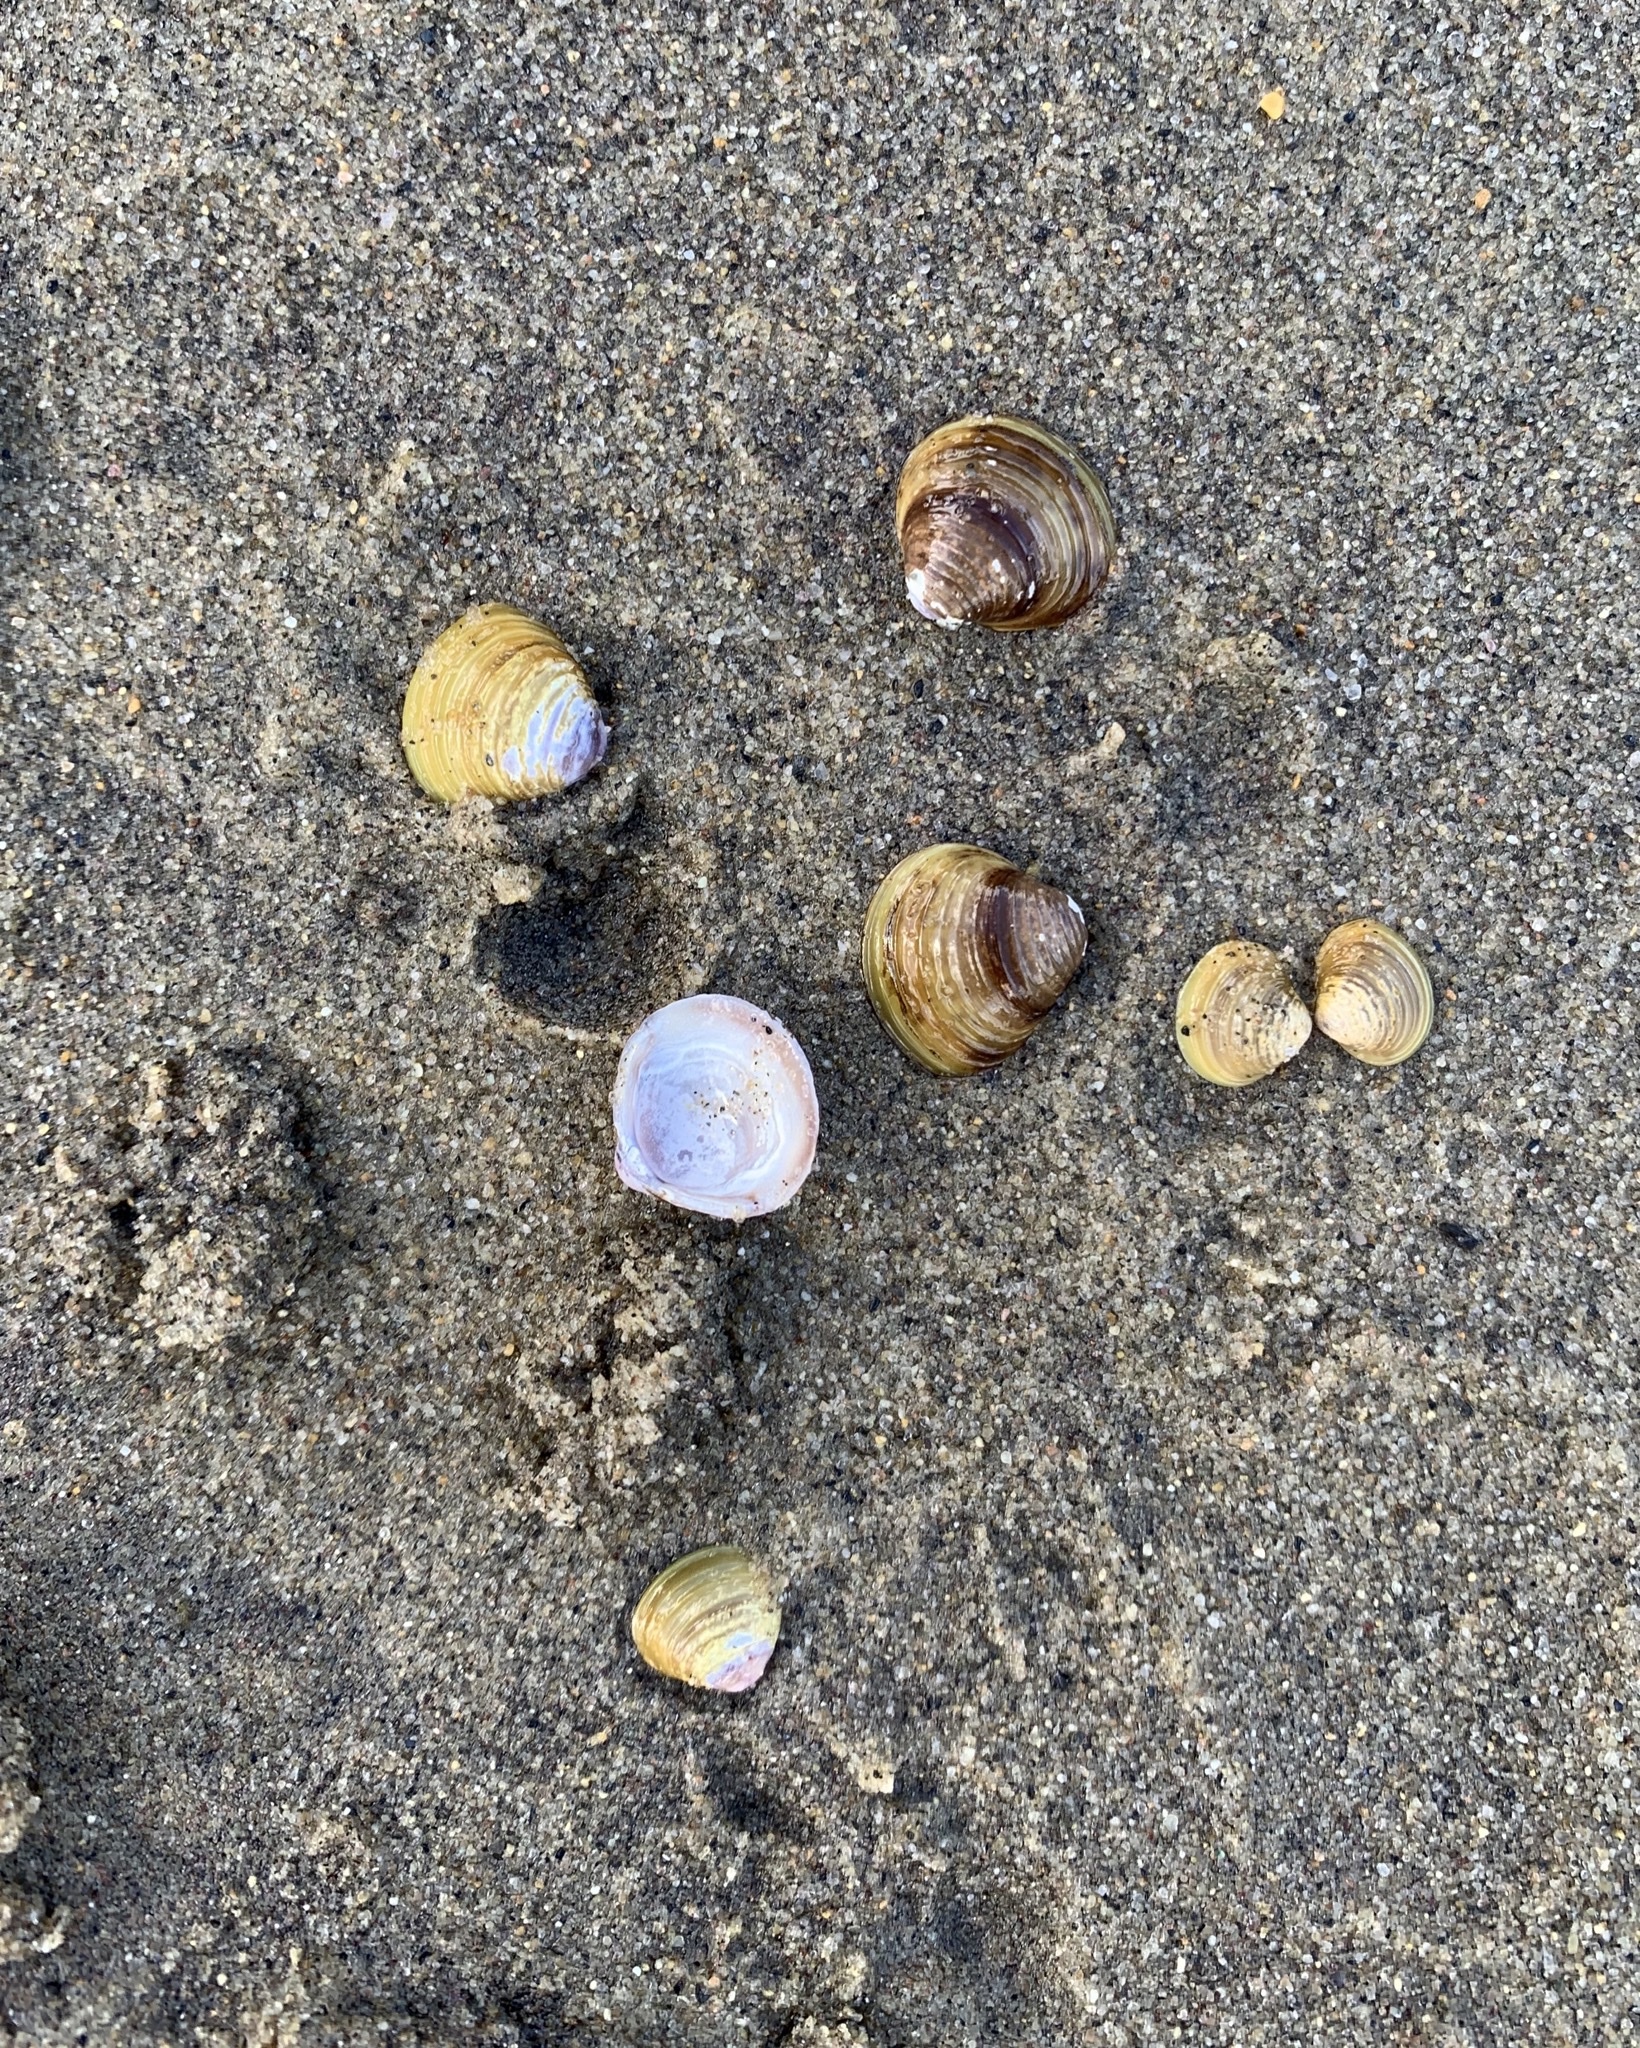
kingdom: Animalia
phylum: Mollusca
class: Bivalvia
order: Venerida
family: Cyrenidae
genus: Corbicula
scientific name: Corbicula fluminea
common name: Asian clam
